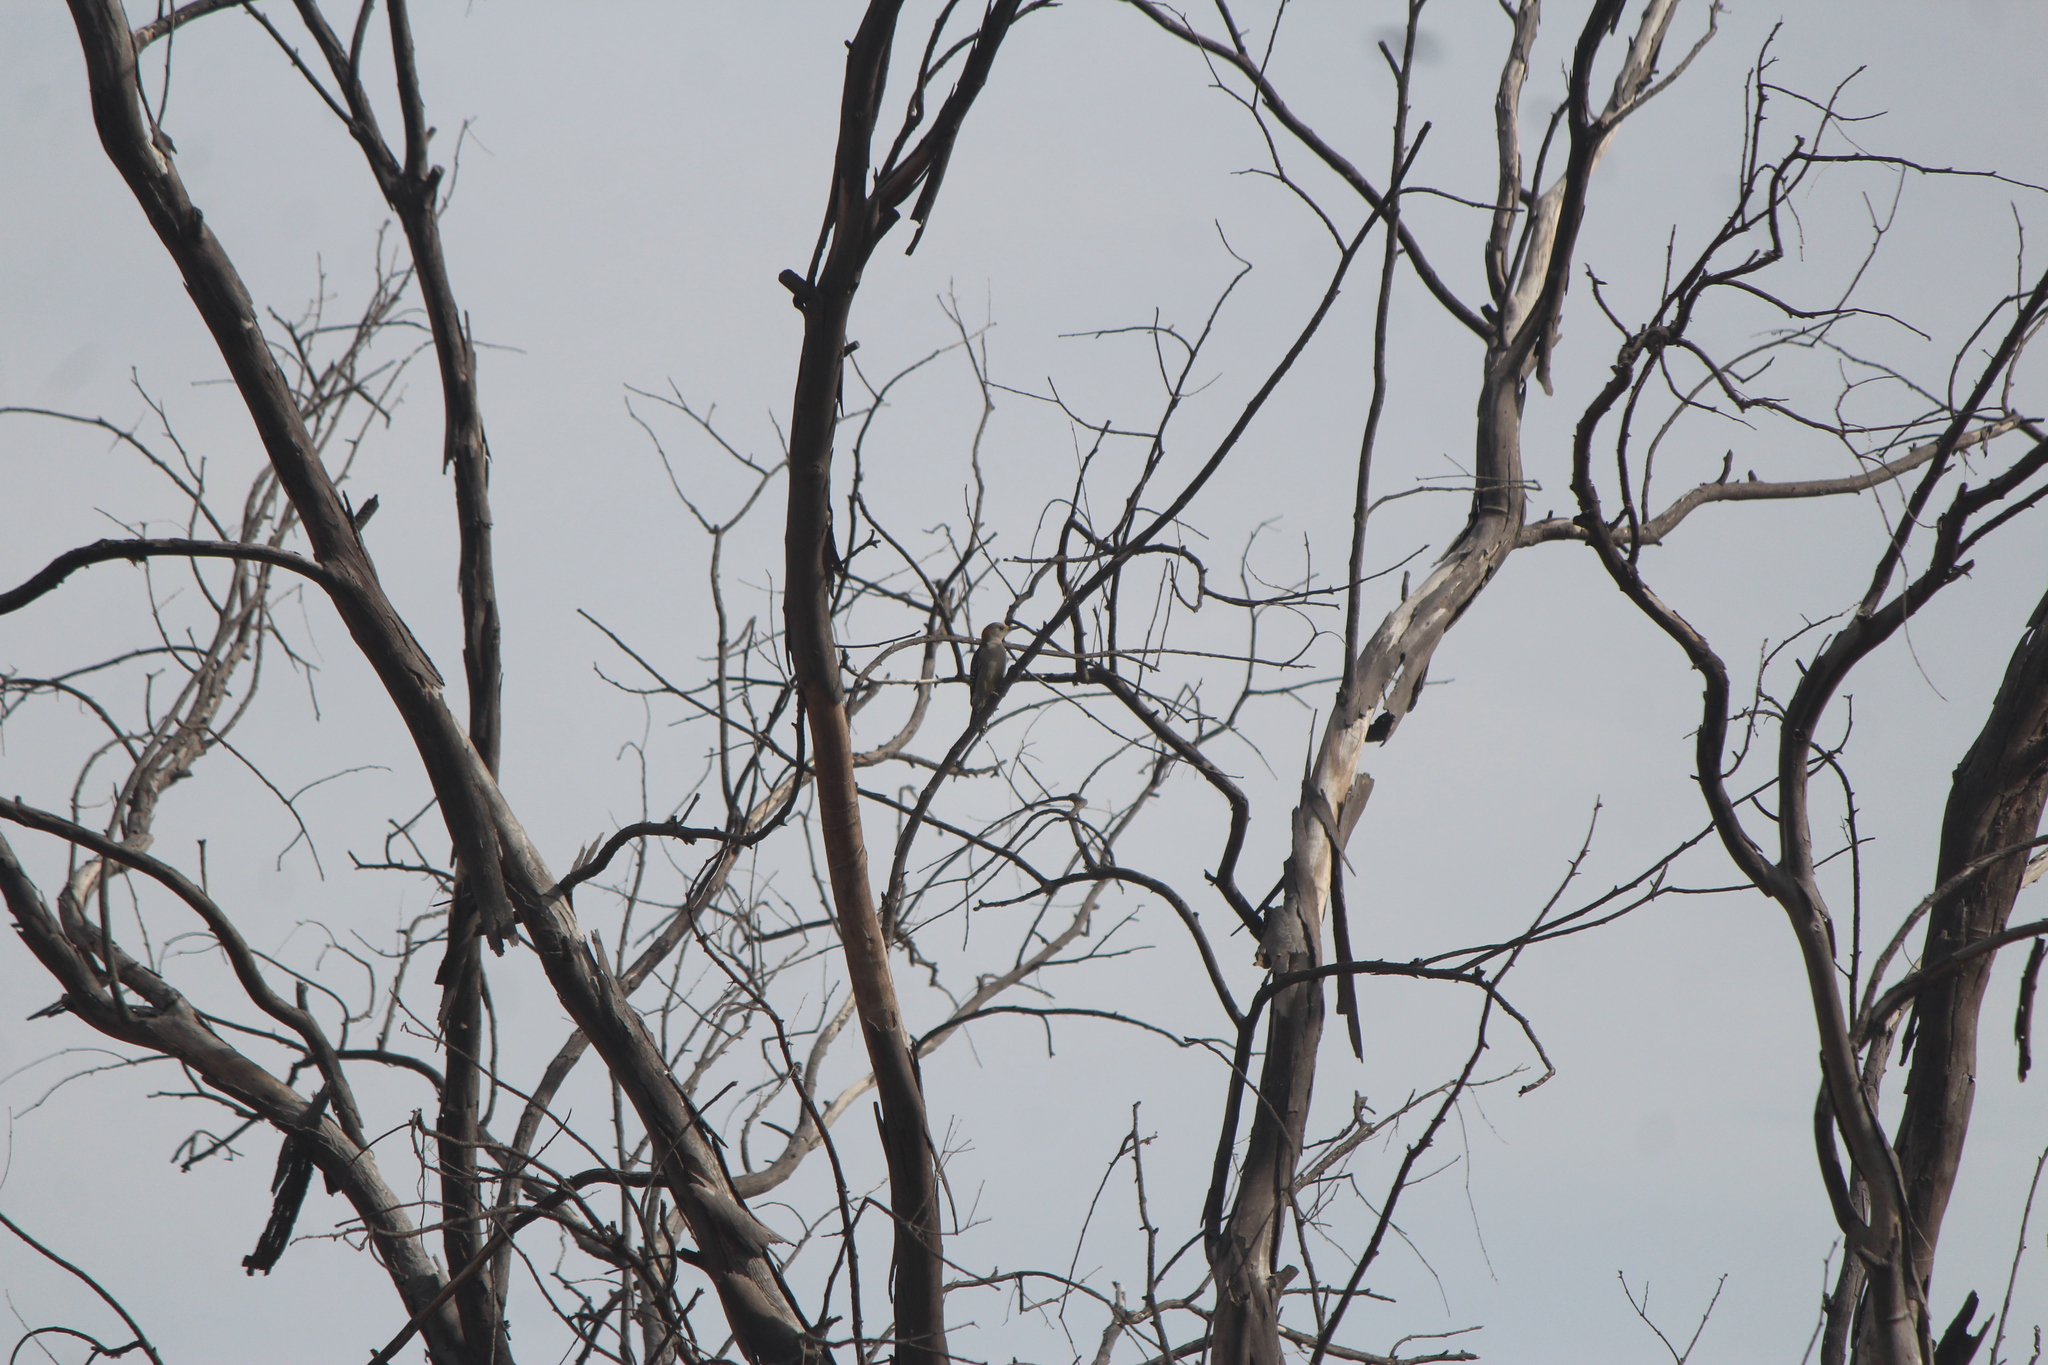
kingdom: Animalia
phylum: Chordata
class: Aves
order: Piciformes
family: Picidae
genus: Melanerpes
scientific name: Melanerpes aurifrons
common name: Golden-fronted woodpecker
